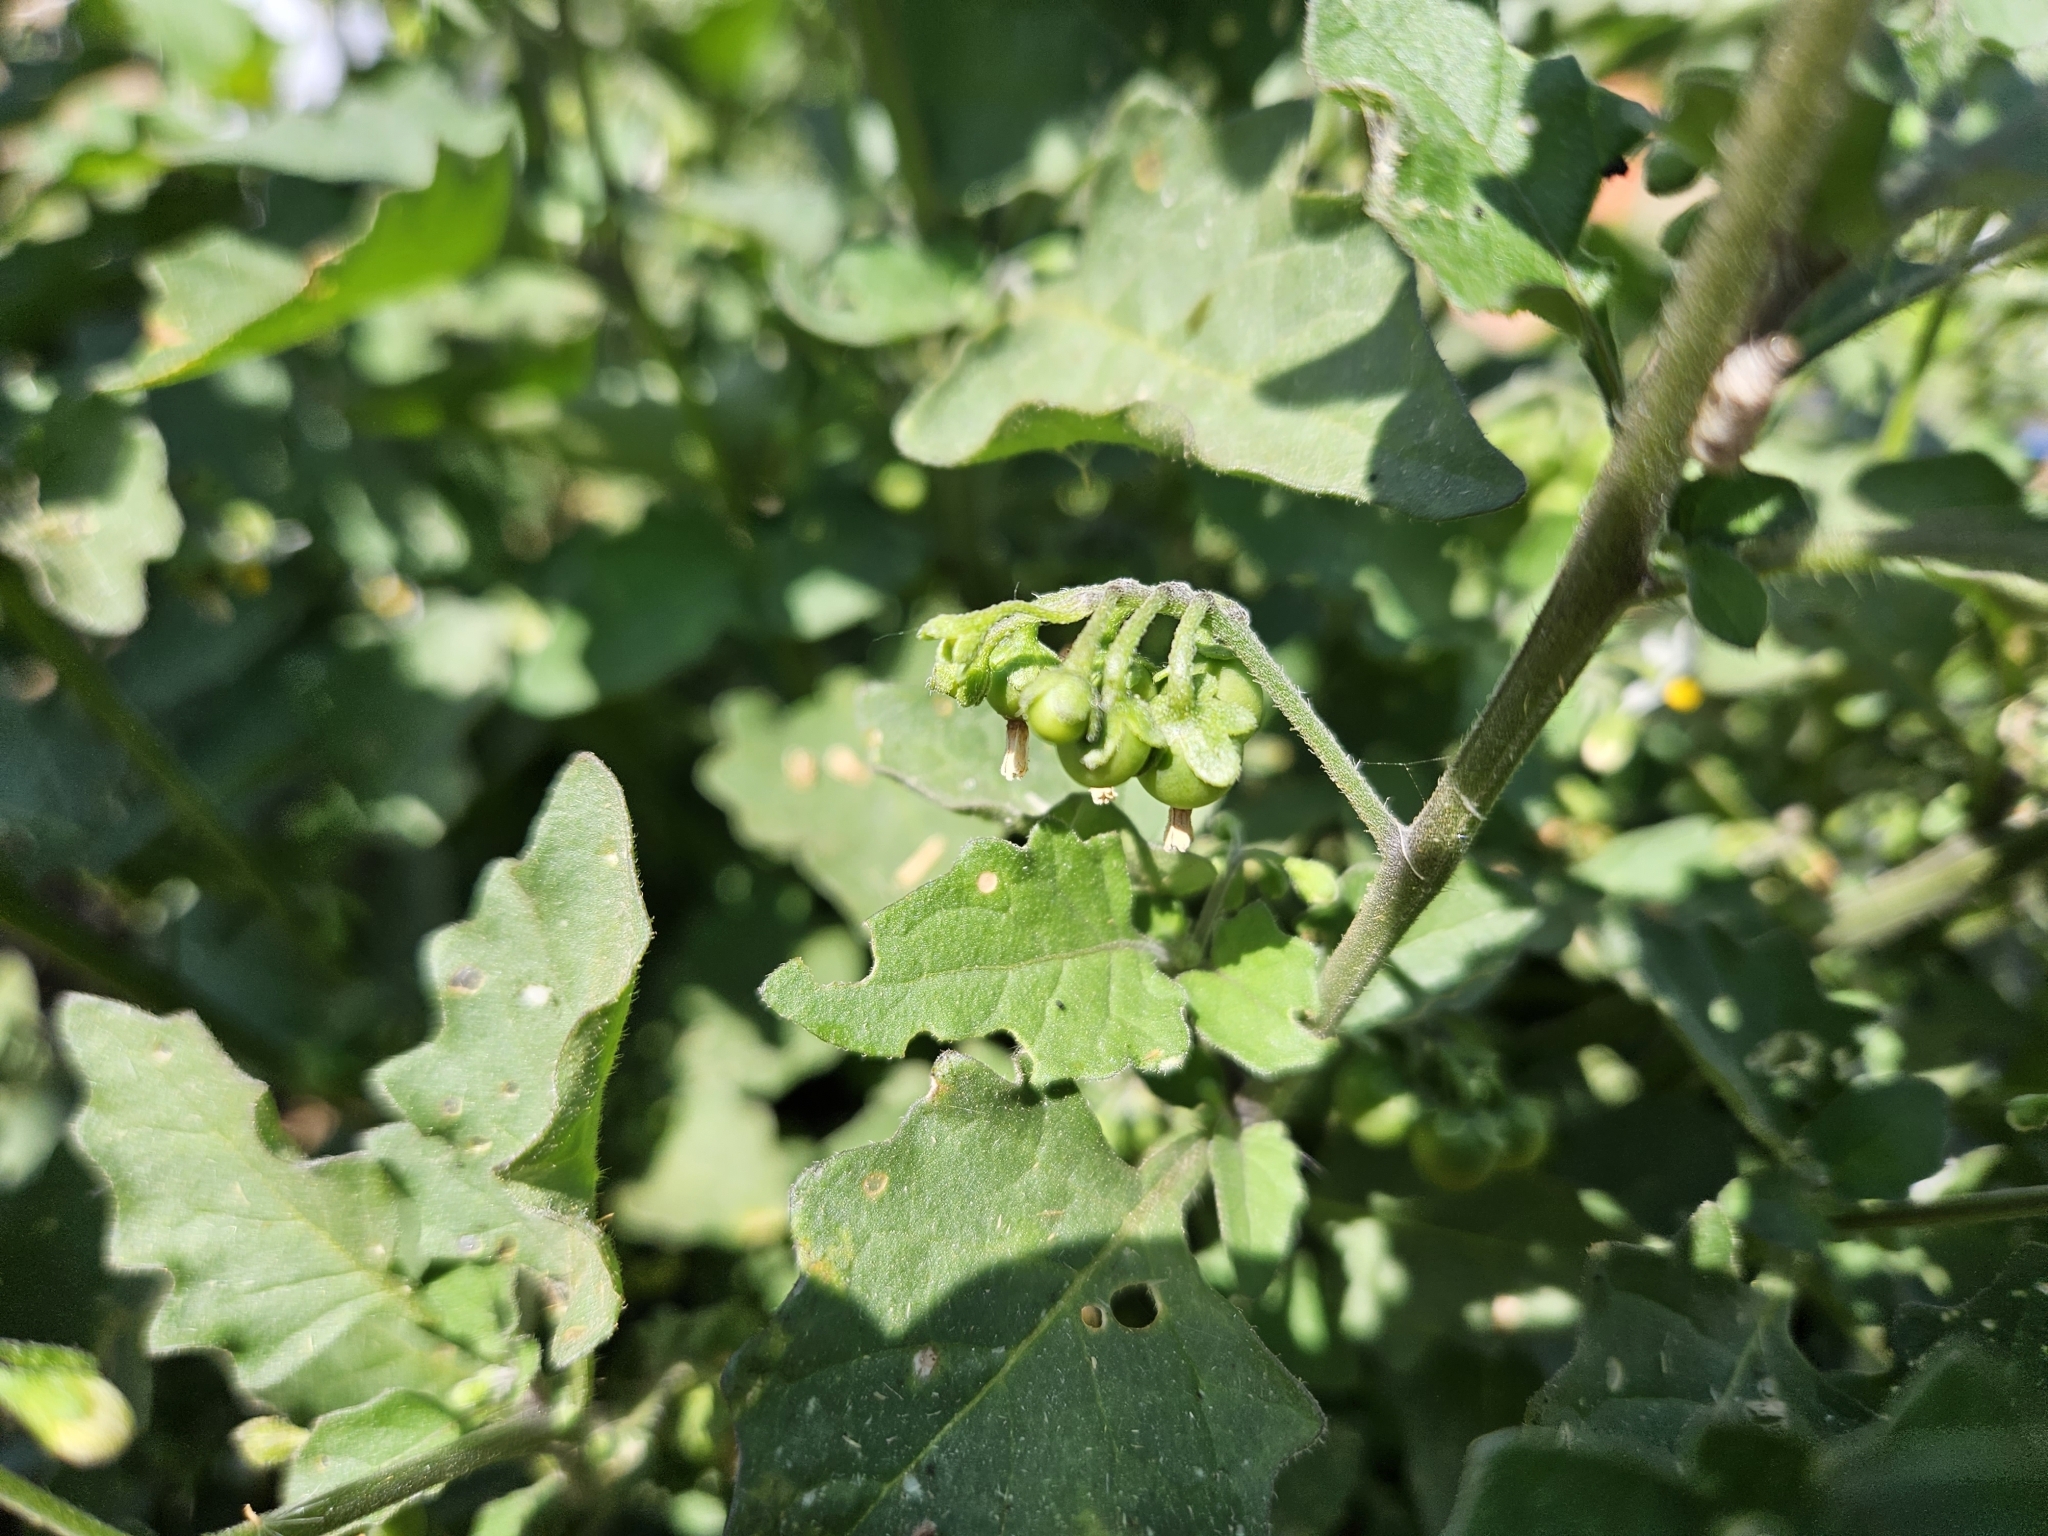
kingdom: Plantae
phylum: Tracheophyta
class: Magnoliopsida
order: Solanales
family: Solanaceae
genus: Solanum
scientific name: Solanum nigrum
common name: Black nightshade
